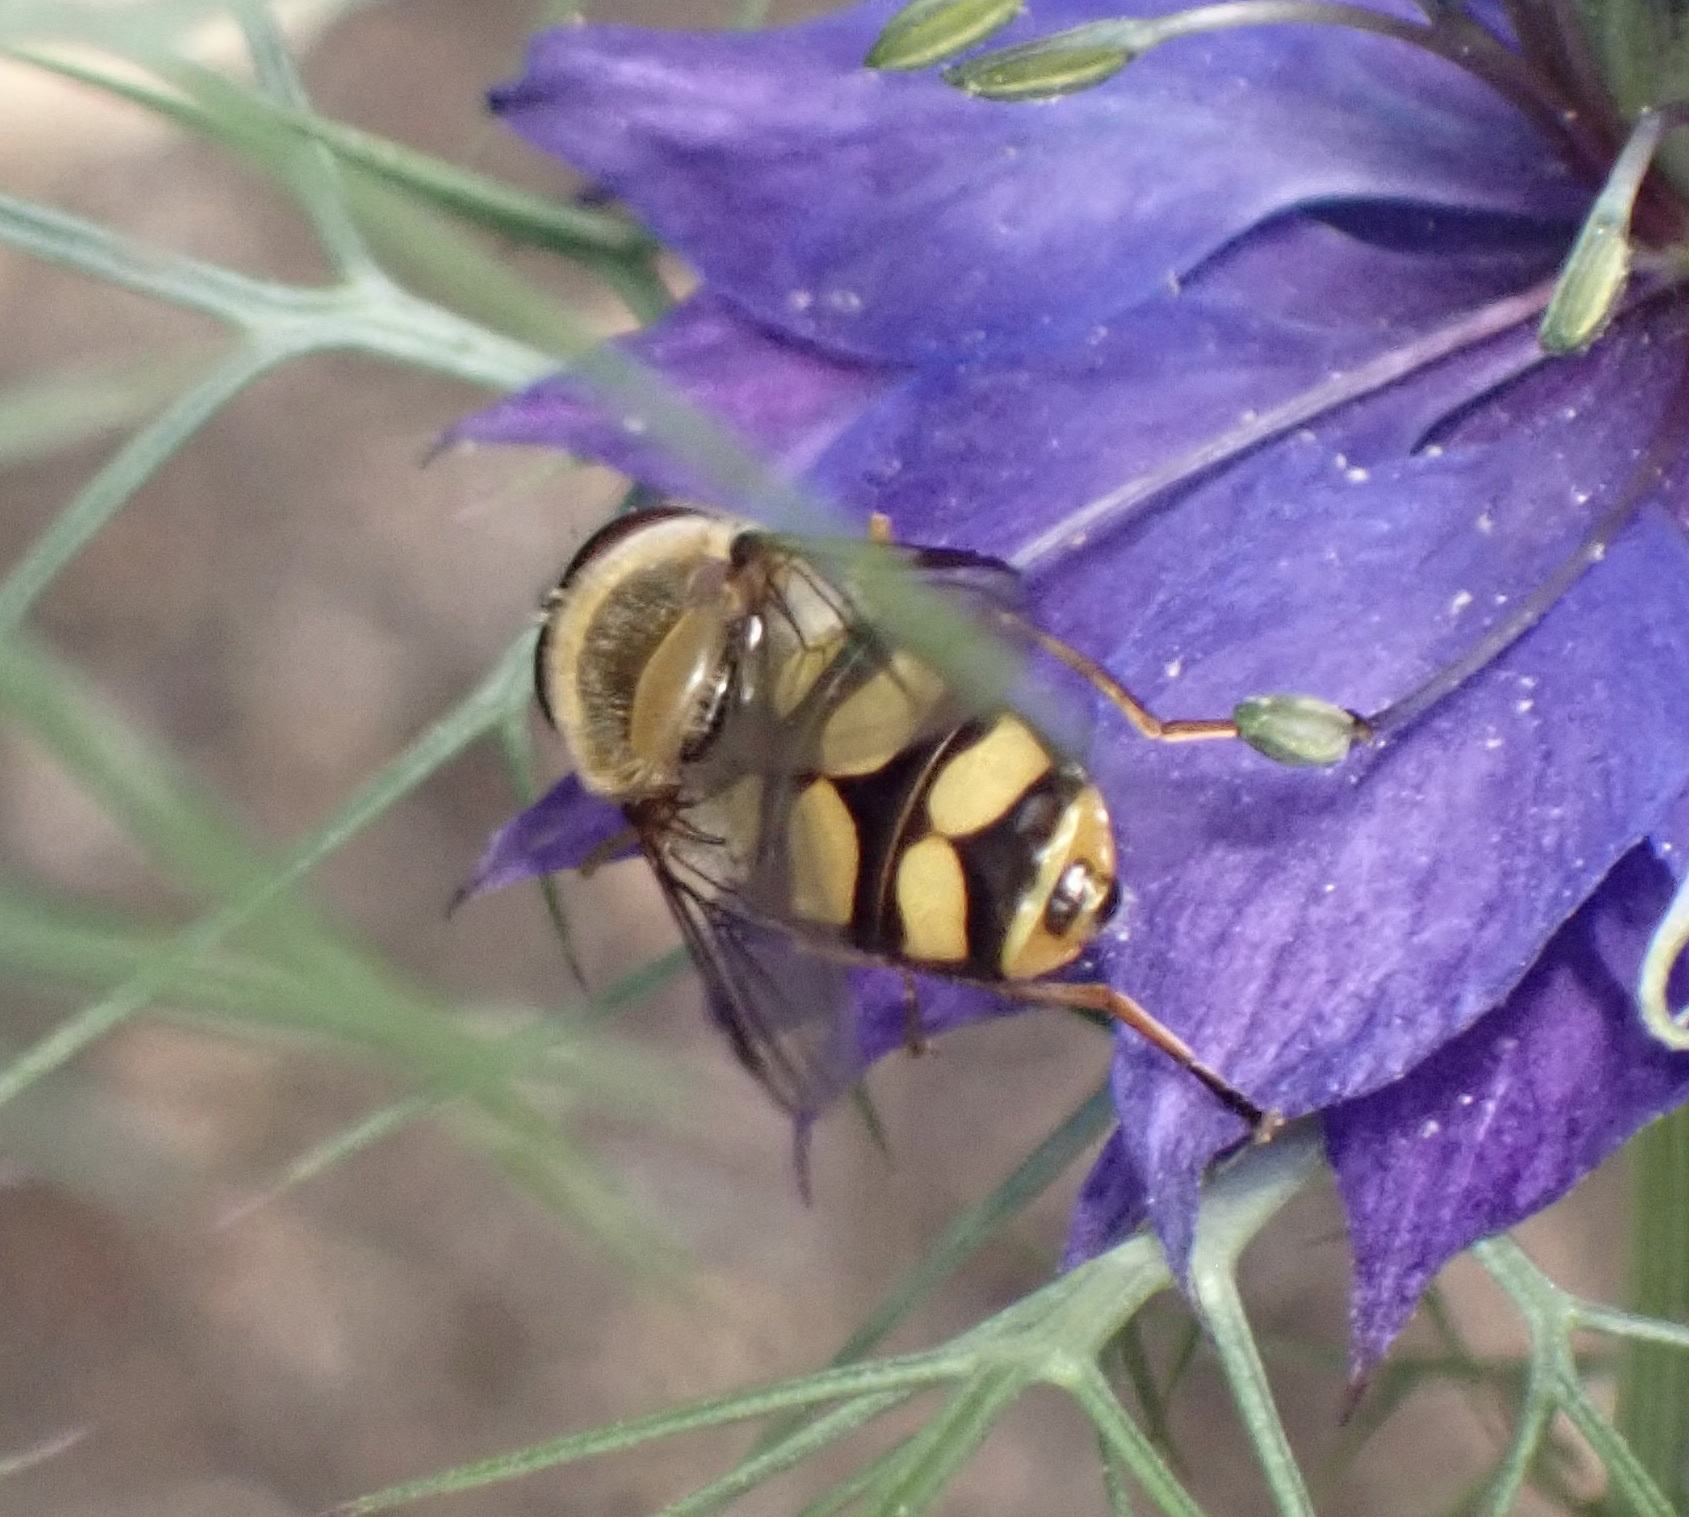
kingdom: Animalia
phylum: Arthropoda
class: Insecta
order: Diptera
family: Syrphidae
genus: Eupeodes
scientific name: Eupeodes
